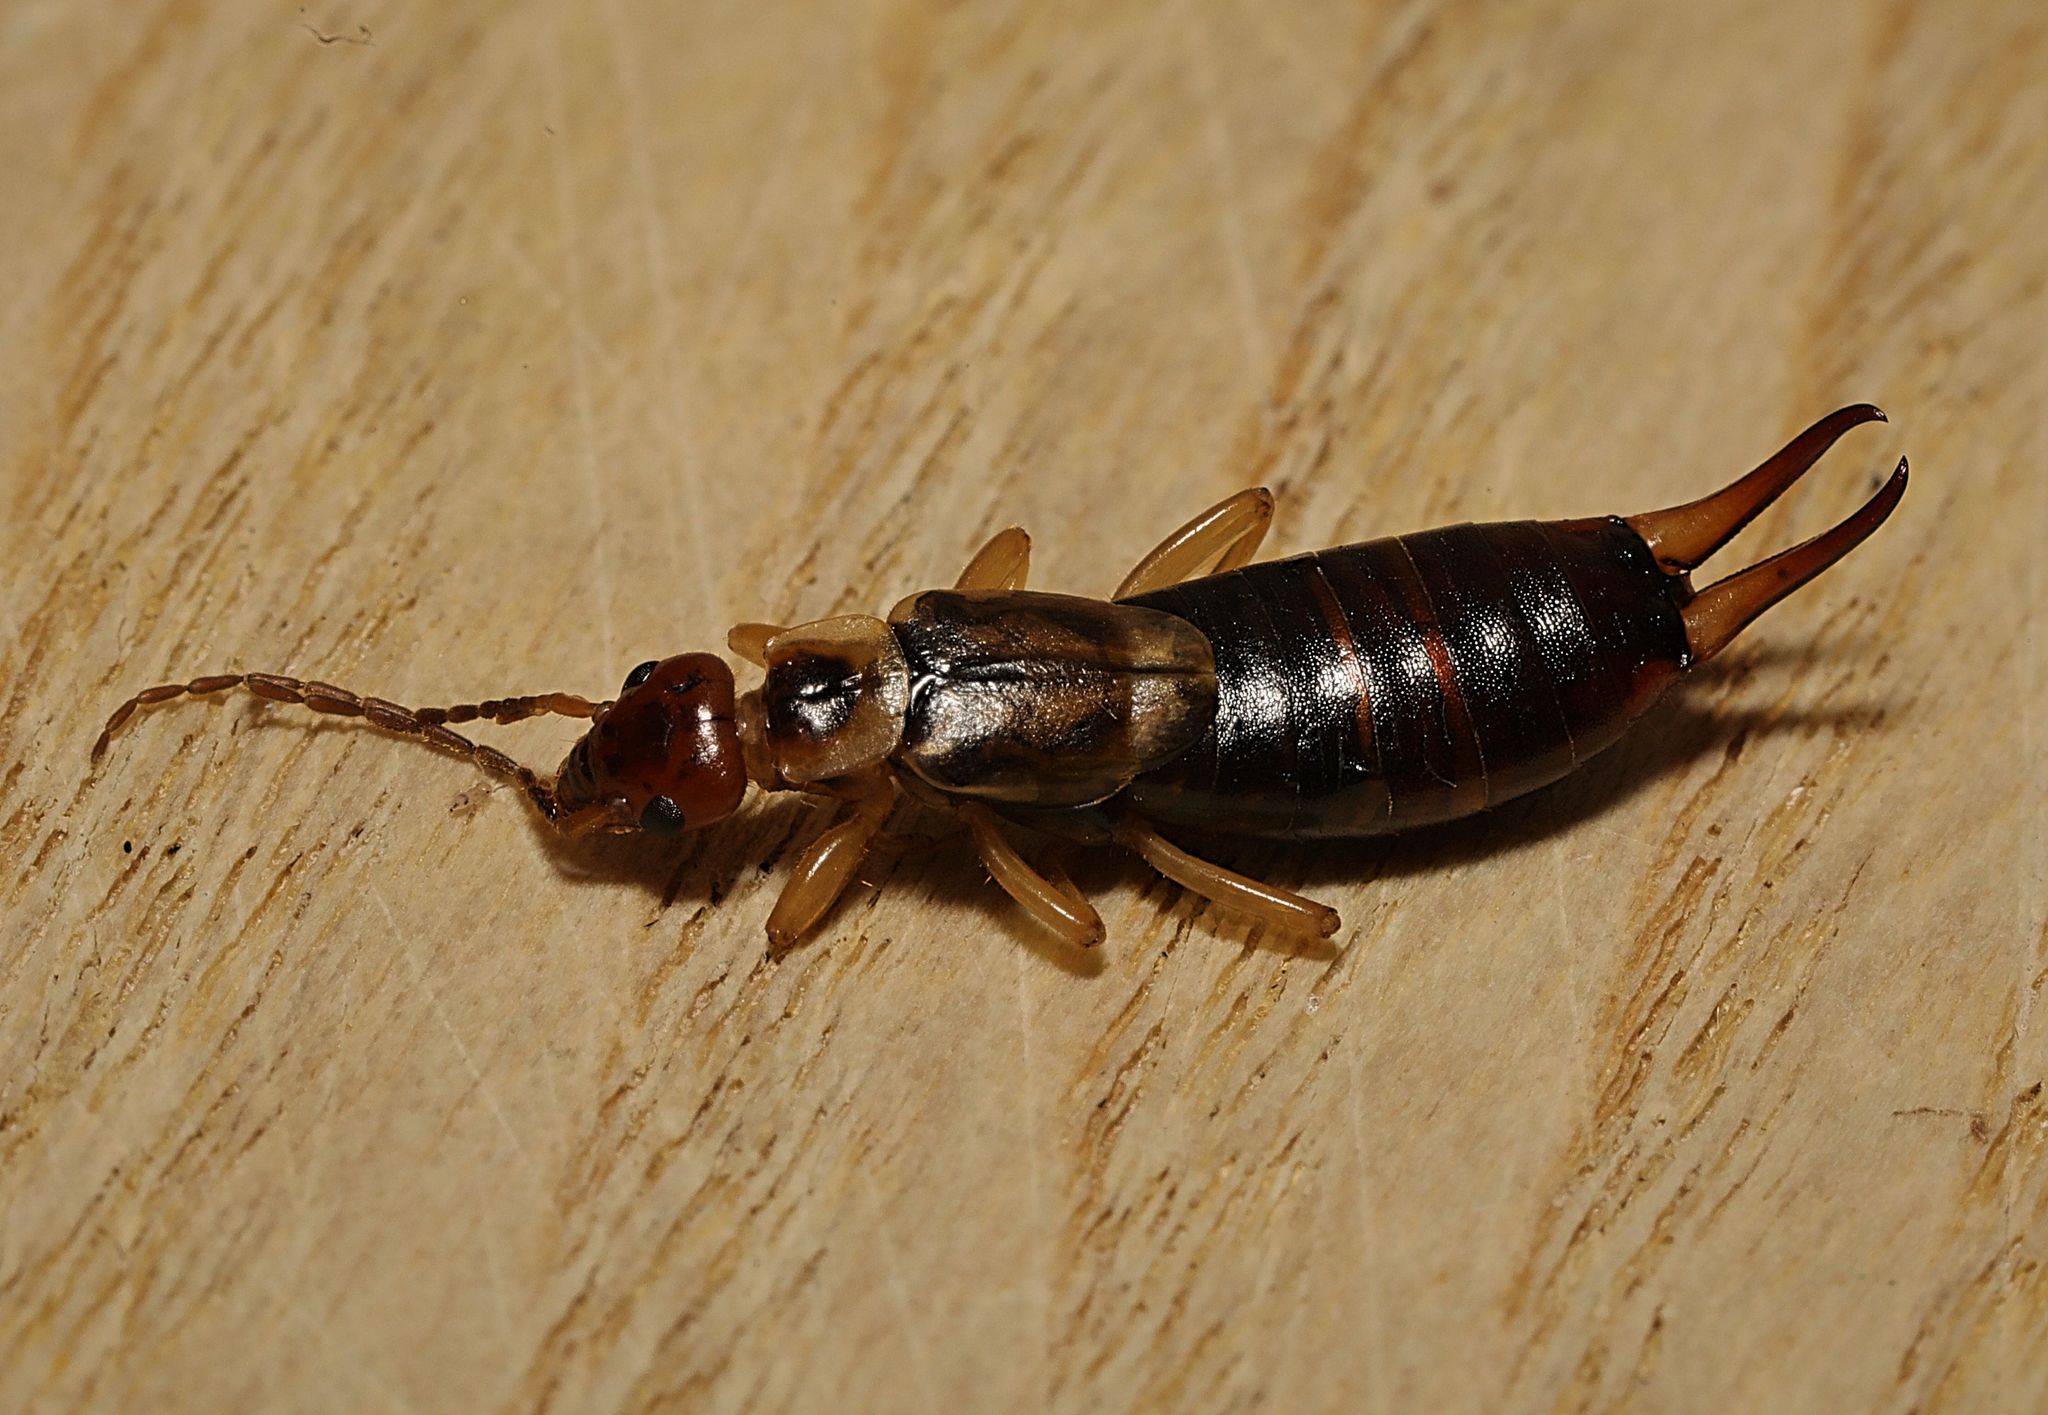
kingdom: Animalia
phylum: Arthropoda
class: Insecta
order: Dermaptera
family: Forficulidae
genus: Forficula
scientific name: Forficula
